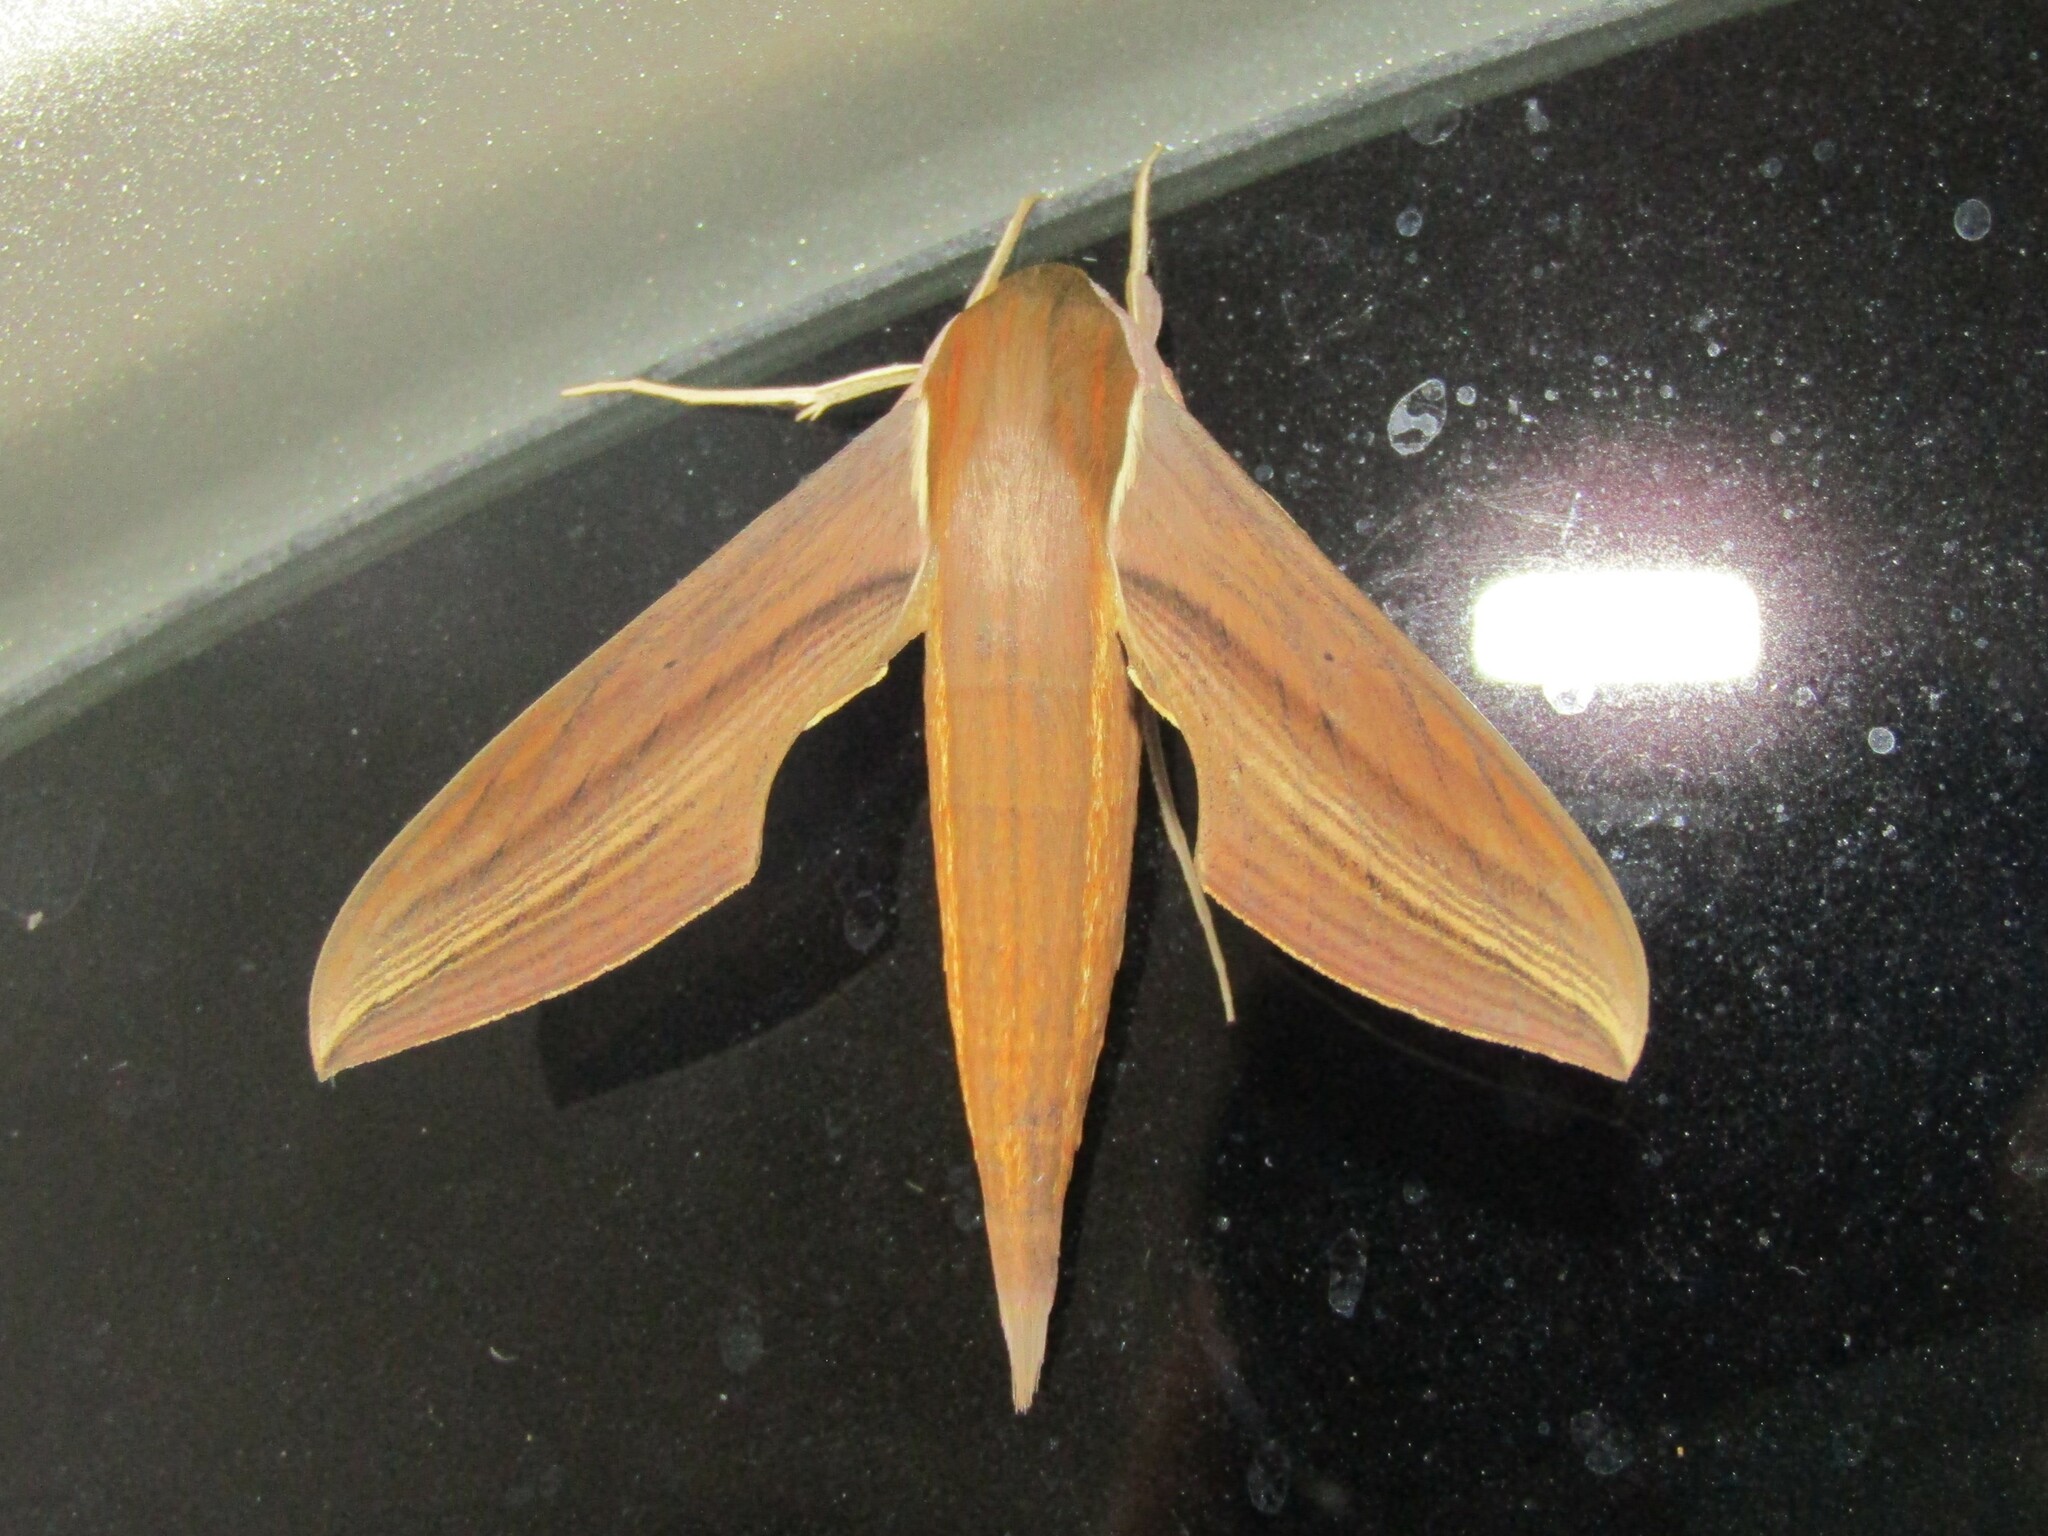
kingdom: Animalia
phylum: Arthropoda
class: Insecta
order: Lepidoptera
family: Sphingidae
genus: Xylophanes
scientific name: Xylophanes tersa
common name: Tersa sphinx
